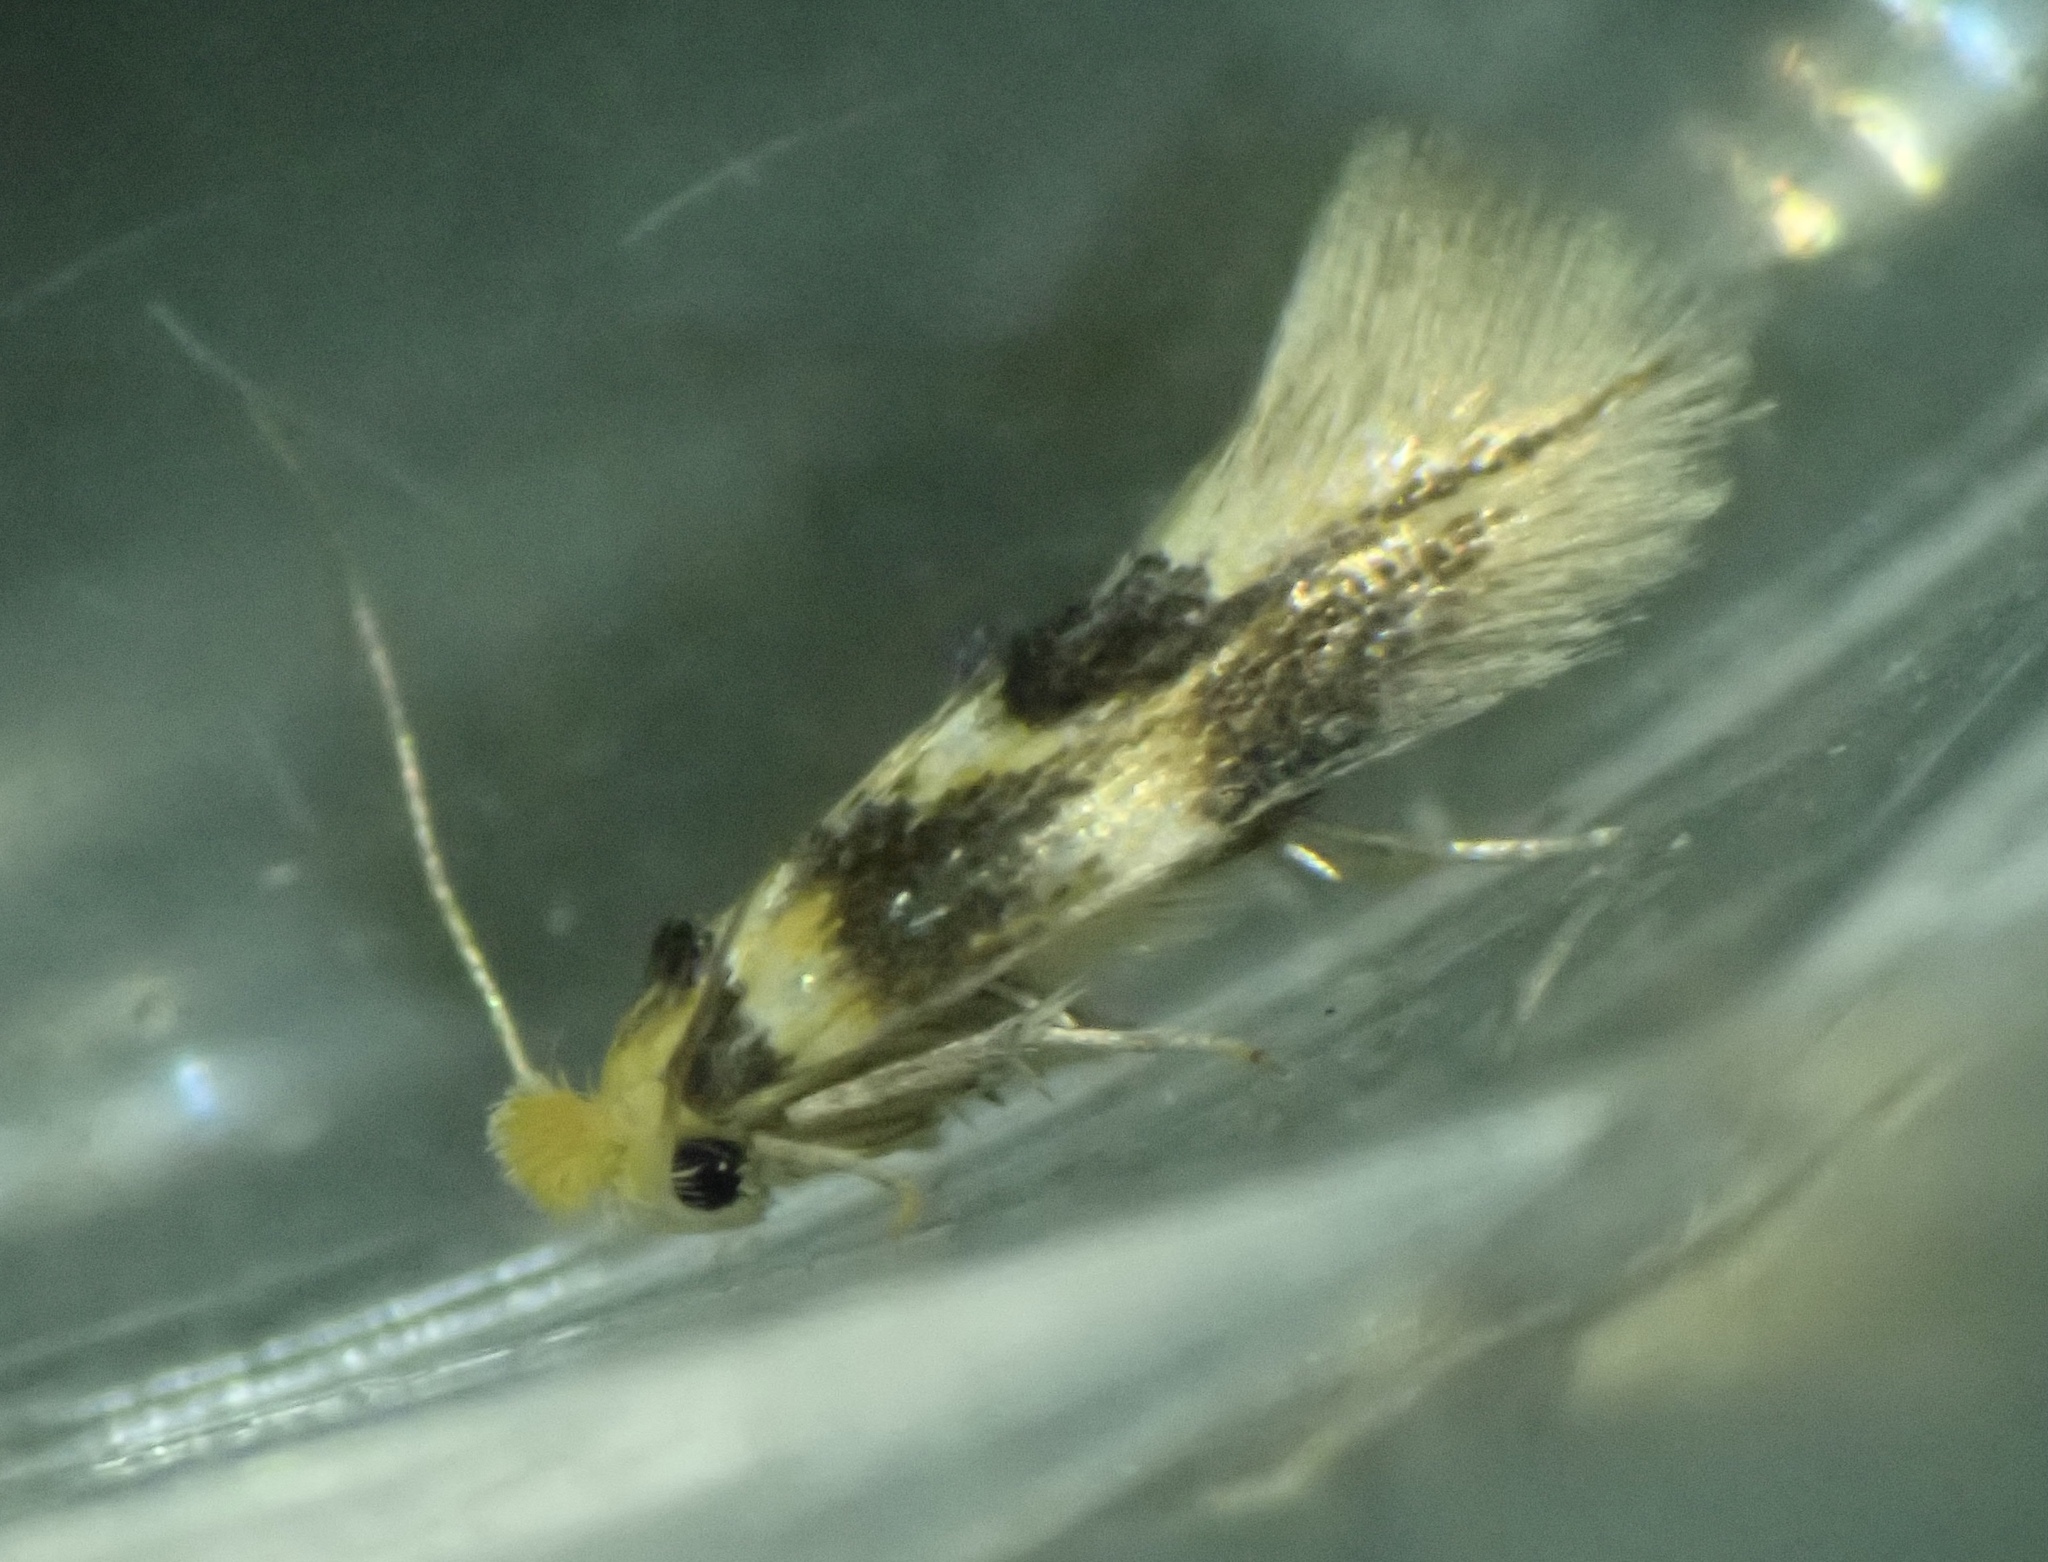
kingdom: Animalia
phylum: Arthropoda
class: Insecta
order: Lepidoptera
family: Bucculatricidae
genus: Bucculatrix
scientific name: Bucculatrix thoracella
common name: Lime bent-wing
